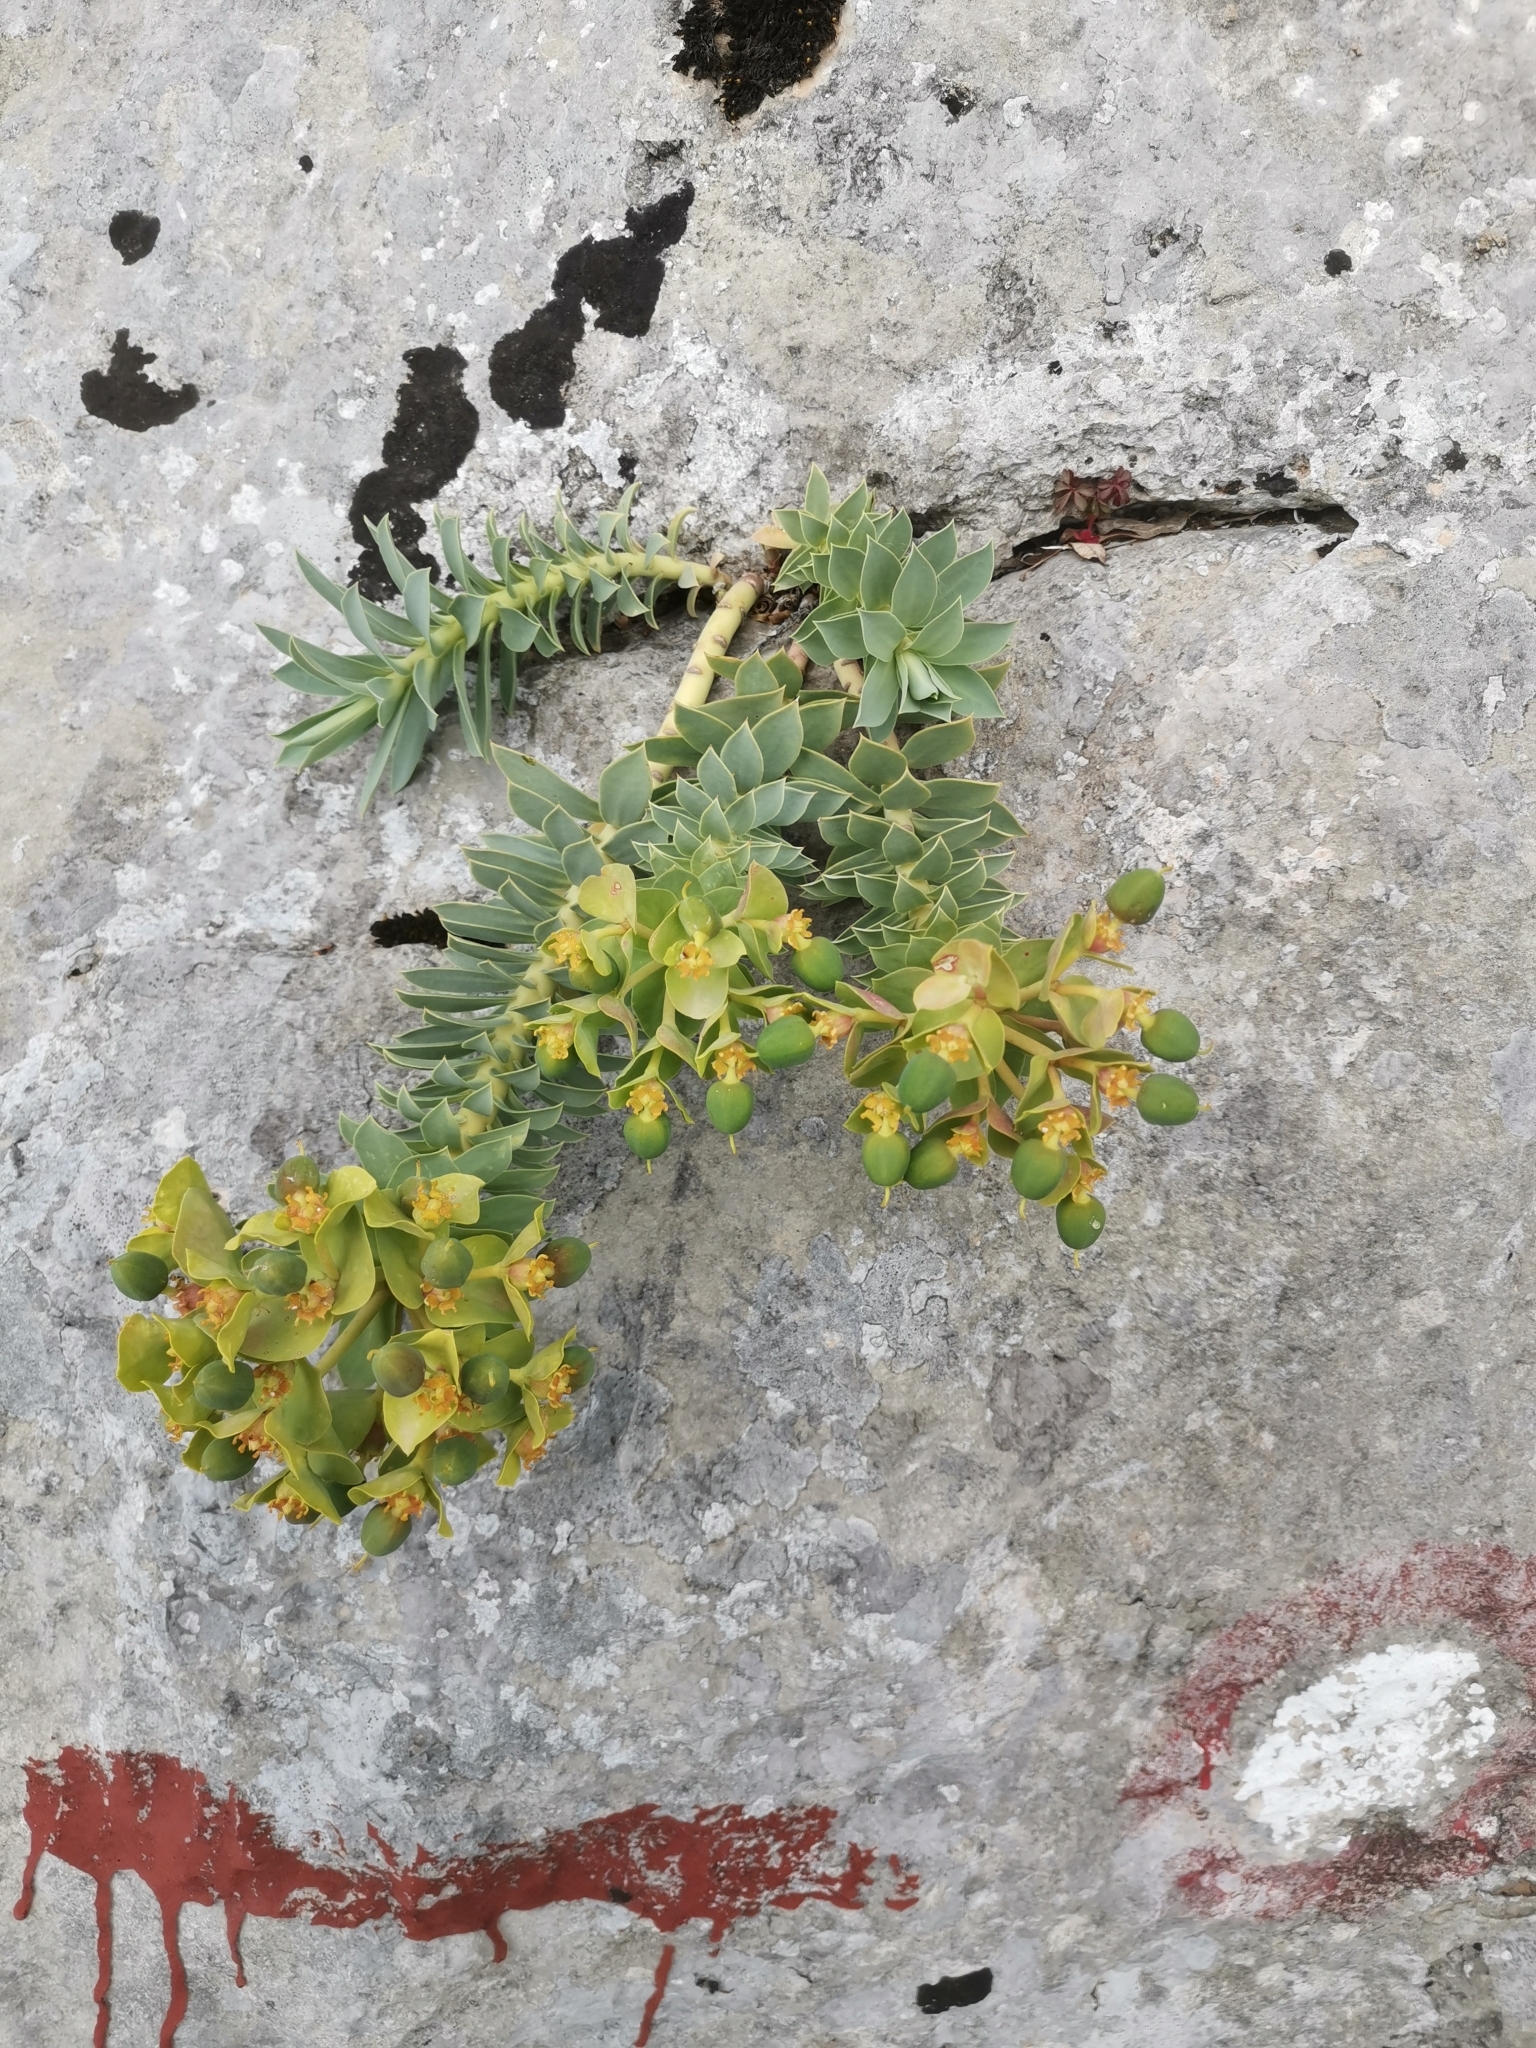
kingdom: Plantae
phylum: Tracheophyta
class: Magnoliopsida
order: Malpighiales
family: Euphorbiaceae
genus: Euphorbia
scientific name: Euphorbia myrsinites
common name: Myrtle spurge
